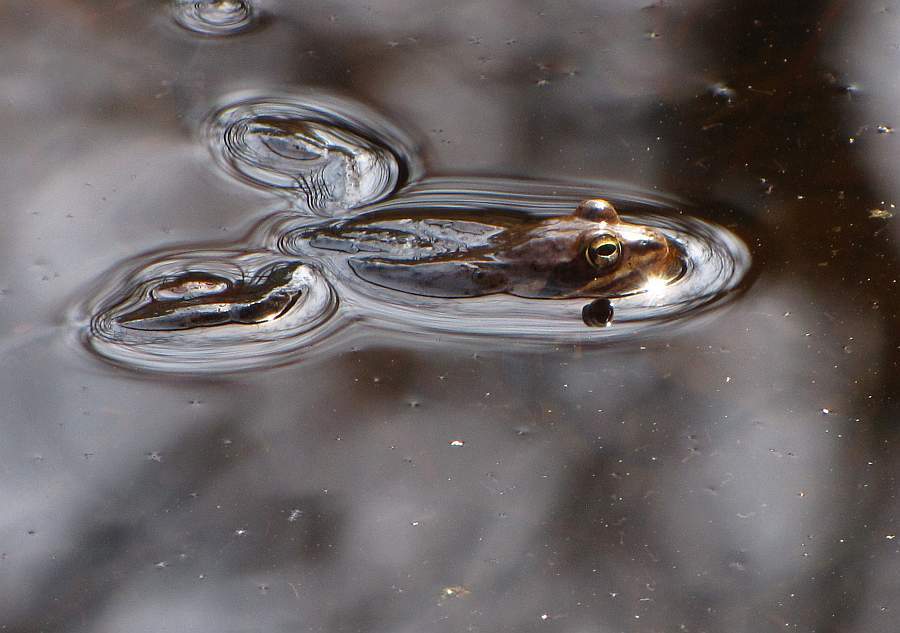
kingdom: Animalia
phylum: Chordata
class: Amphibia
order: Anura
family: Ranidae
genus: Lithobates
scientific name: Lithobates sylvaticus
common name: Wood frog
